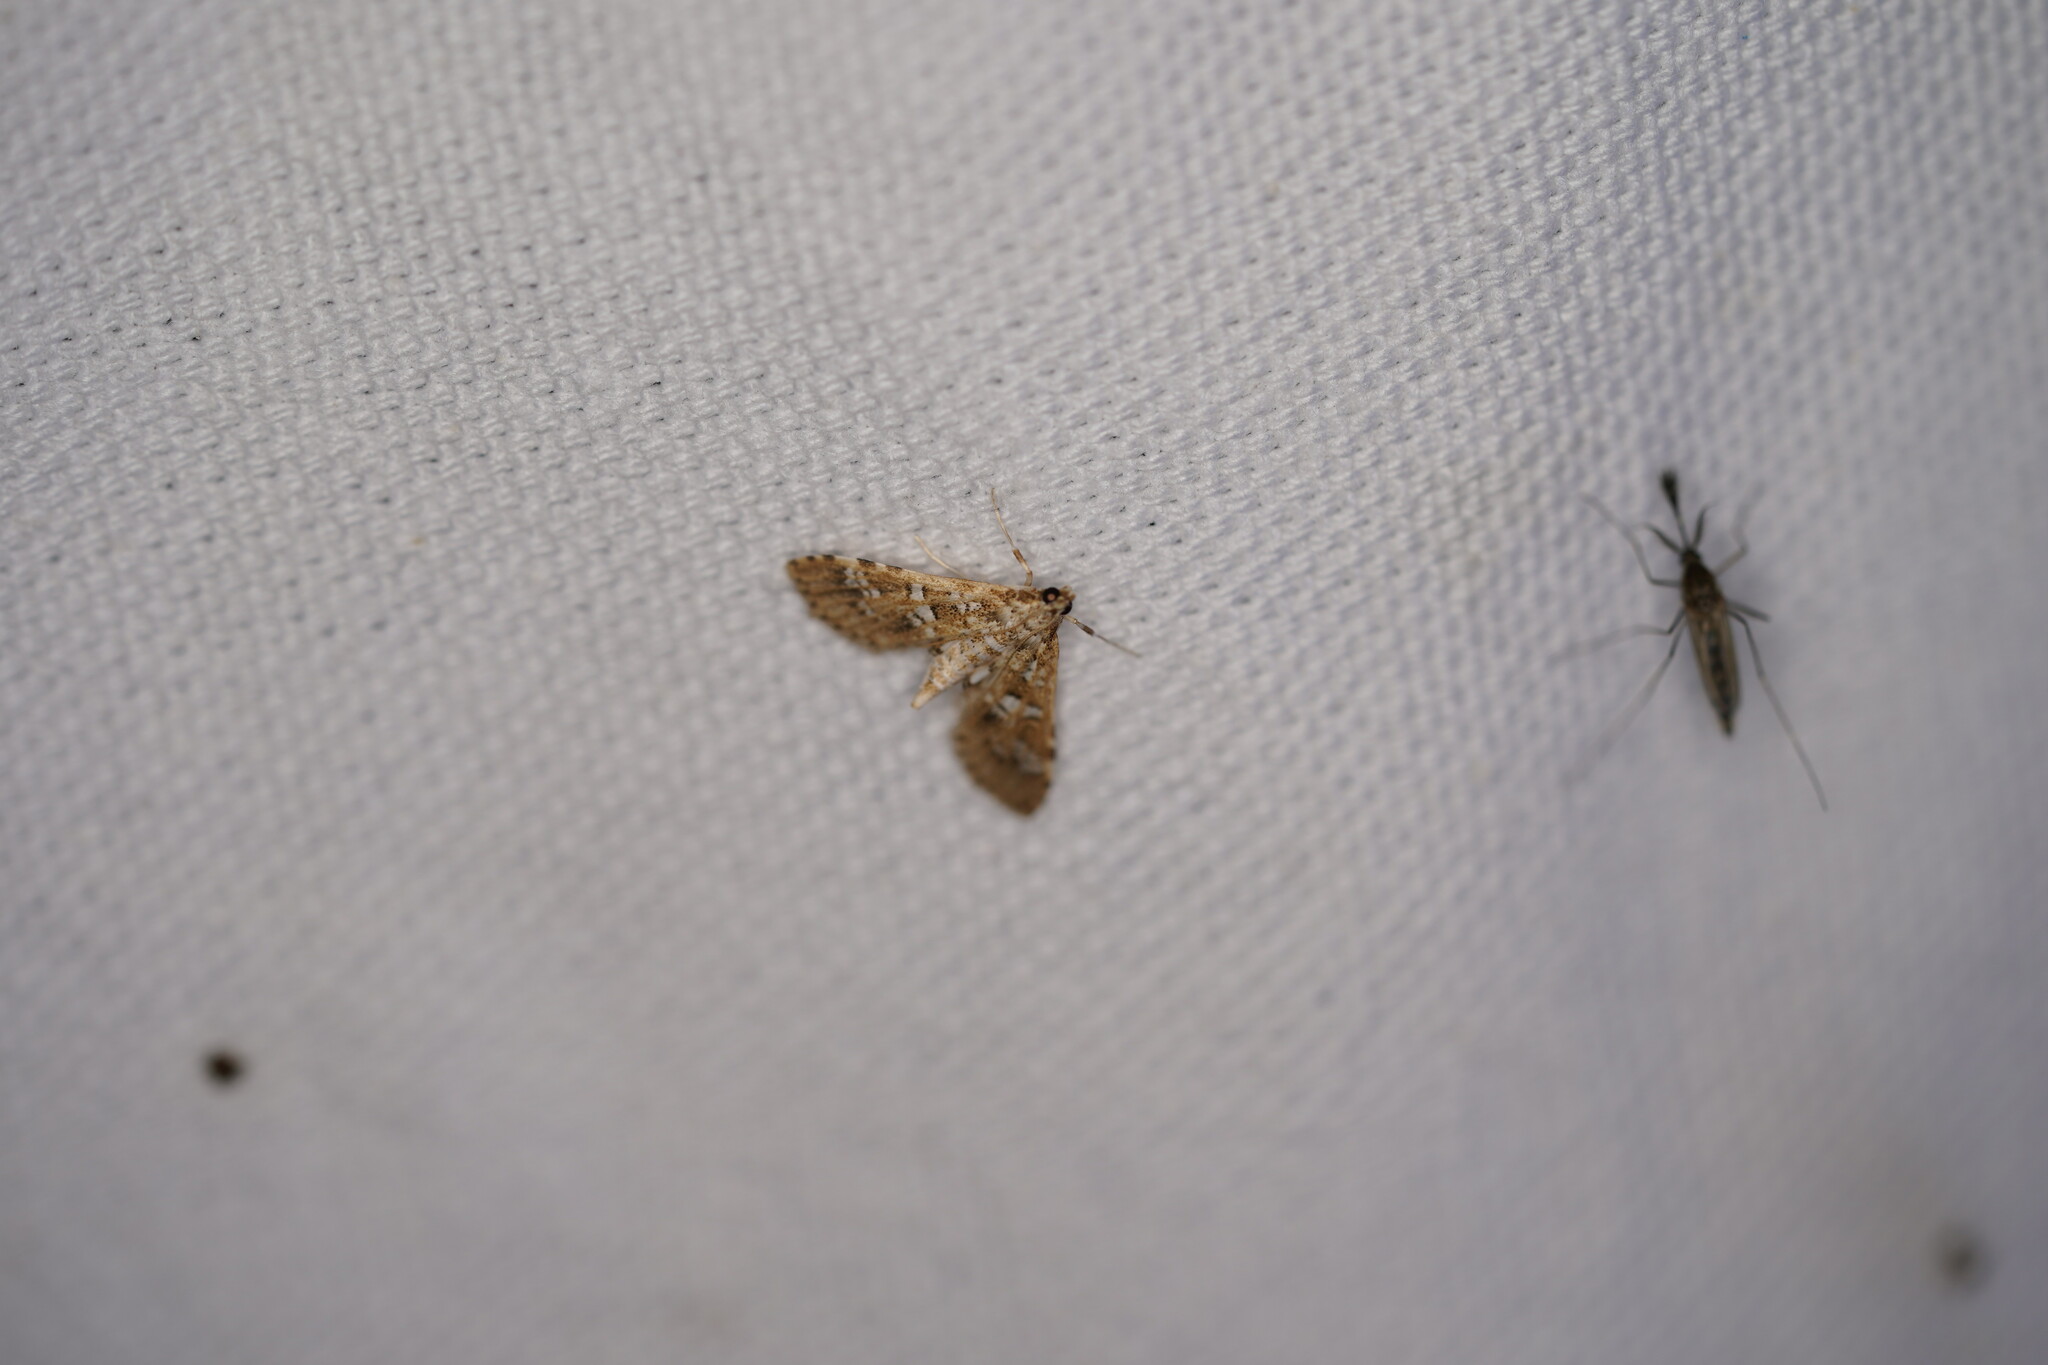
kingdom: Animalia
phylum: Arthropoda
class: Insecta
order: Lepidoptera
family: Crambidae
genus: Samea
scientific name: Samea multiplicalis
